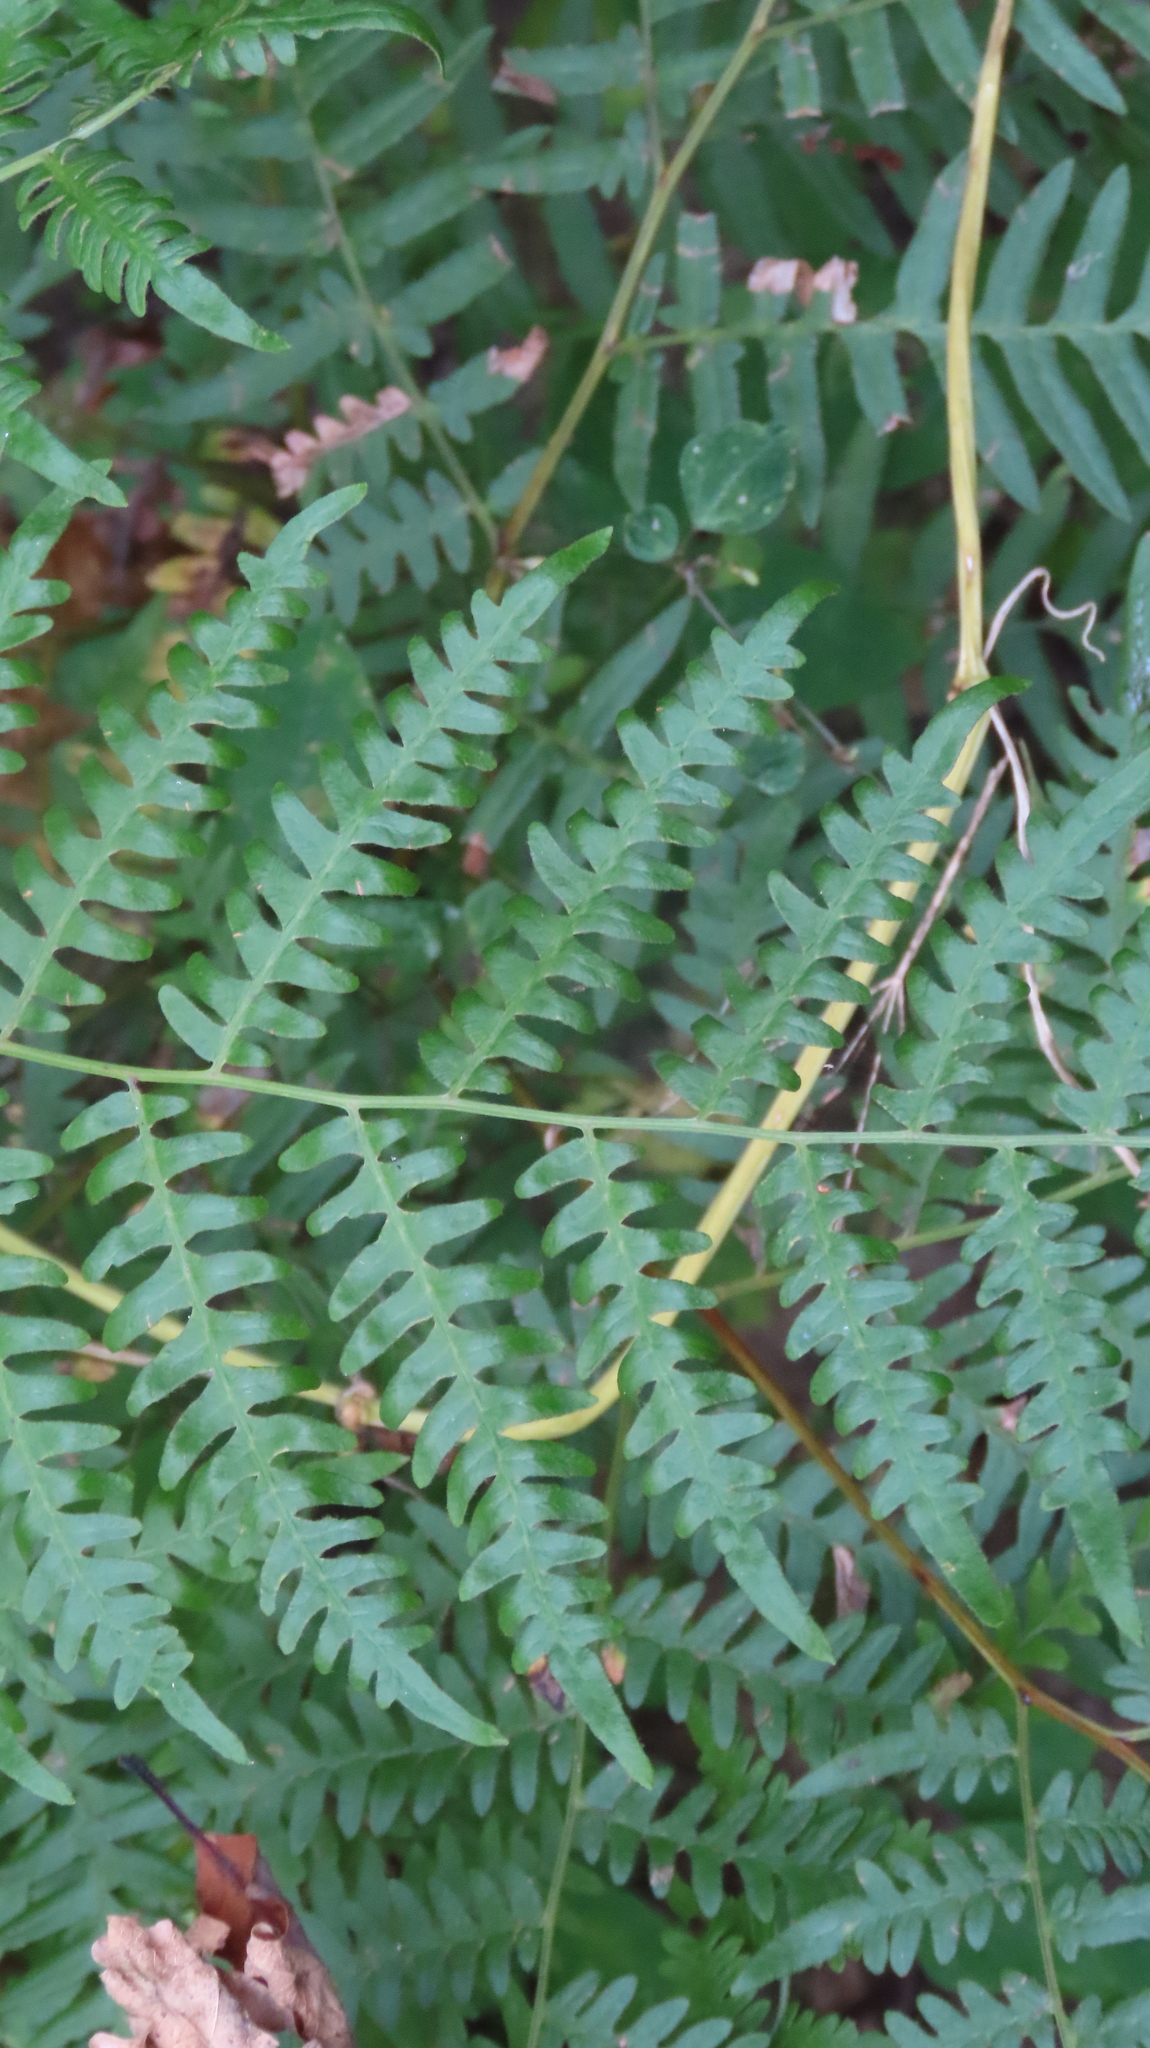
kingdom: Plantae
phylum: Tracheophyta
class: Polypodiopsida
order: Polypodiales
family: Dennstaedtiaceae
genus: Pteridium
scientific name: Pteridium aquilinum
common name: Bracken
